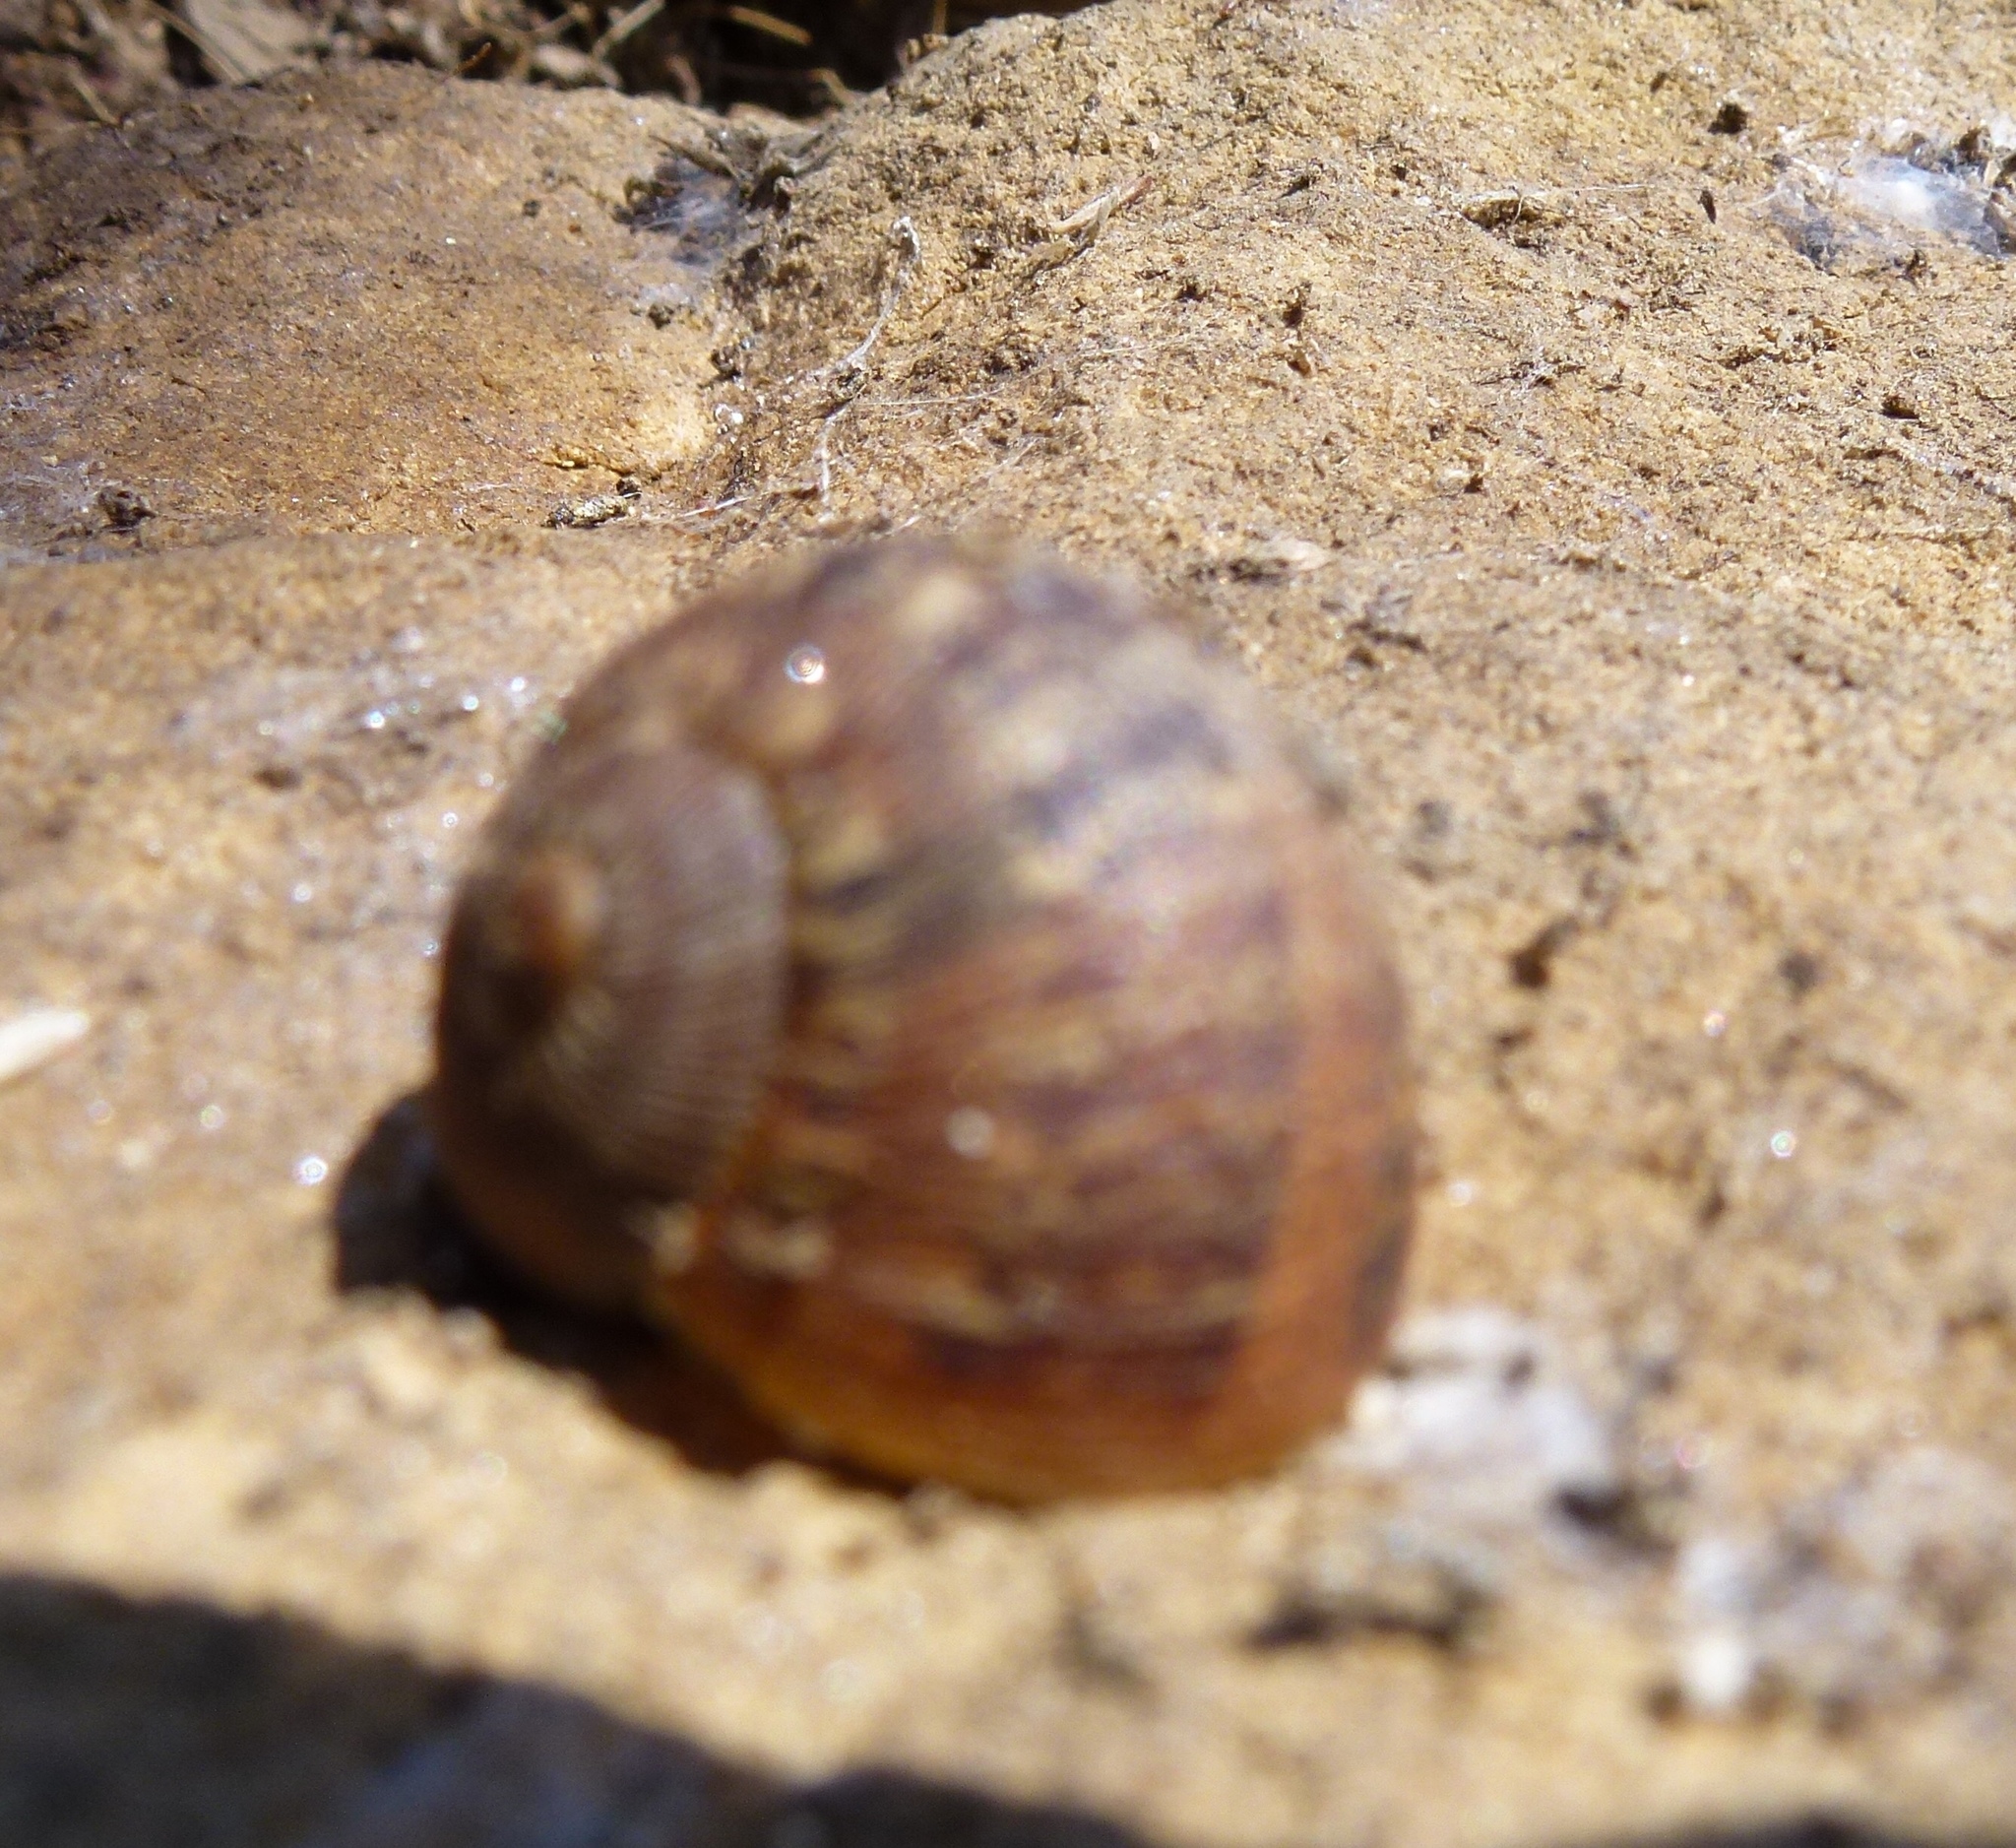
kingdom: Animalia
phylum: Mollusca
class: Gastropoda
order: Stylommatophora
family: Helicidae
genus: Cornu
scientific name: Cornu aspersum
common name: Brown garden snail
